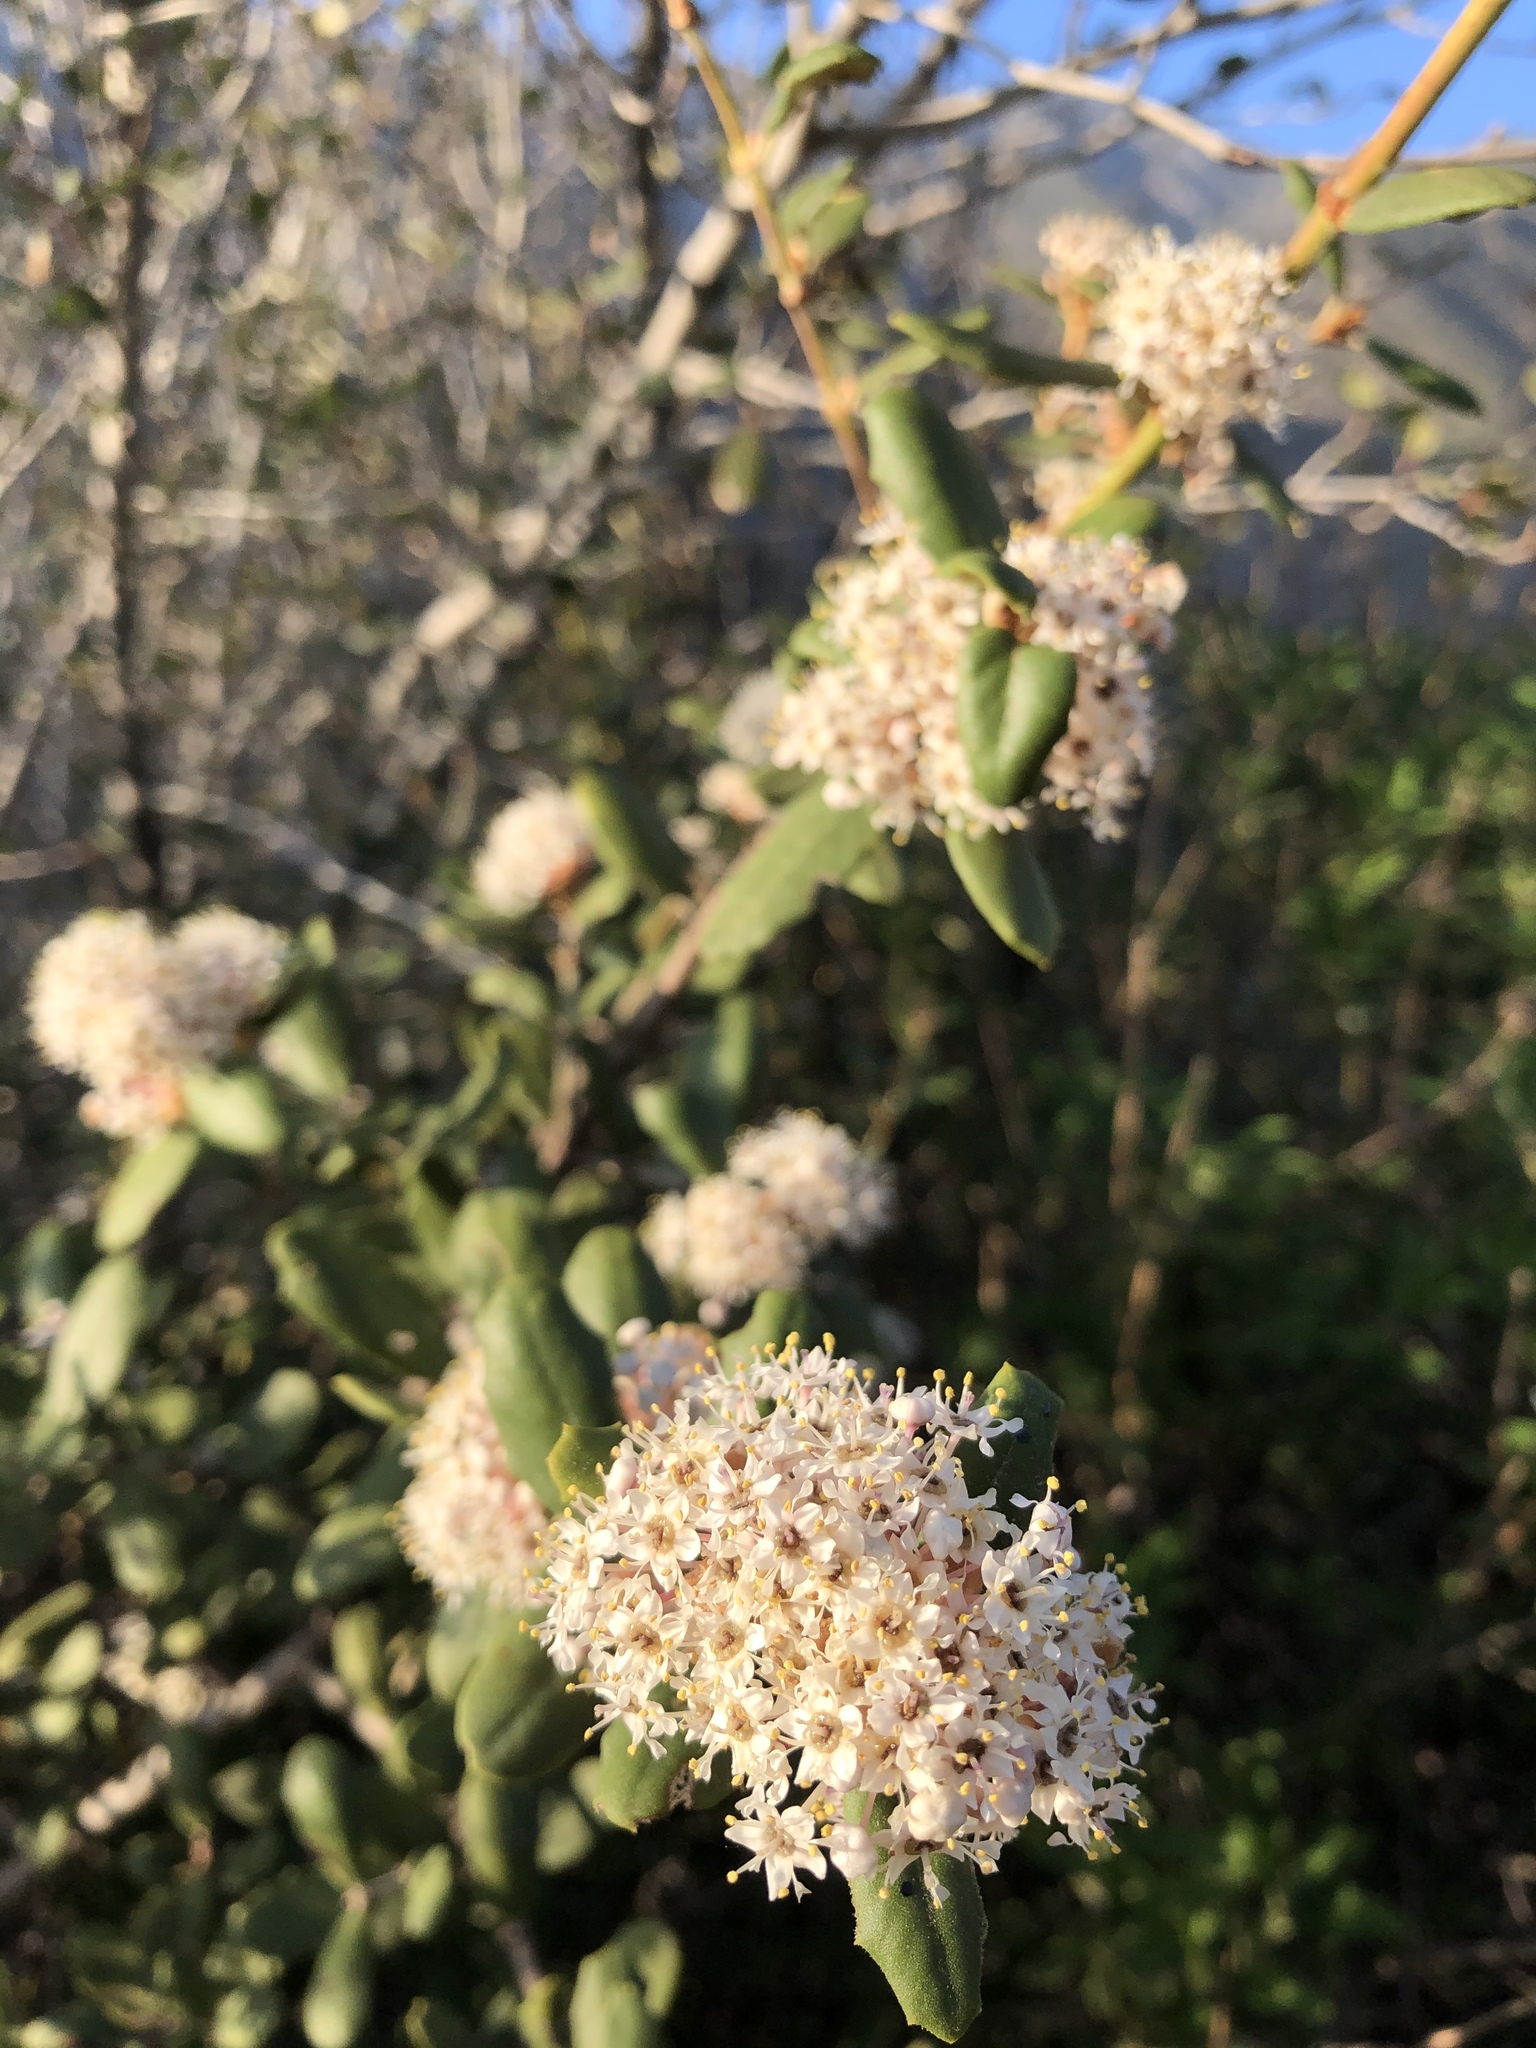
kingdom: Plantae
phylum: Tracheophyta
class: Magnoliopsida
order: Rosales
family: Rhamnaceae
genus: Ceanothus
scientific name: Ceanothus crassifolius
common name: Hoaryleaf ceanothus
